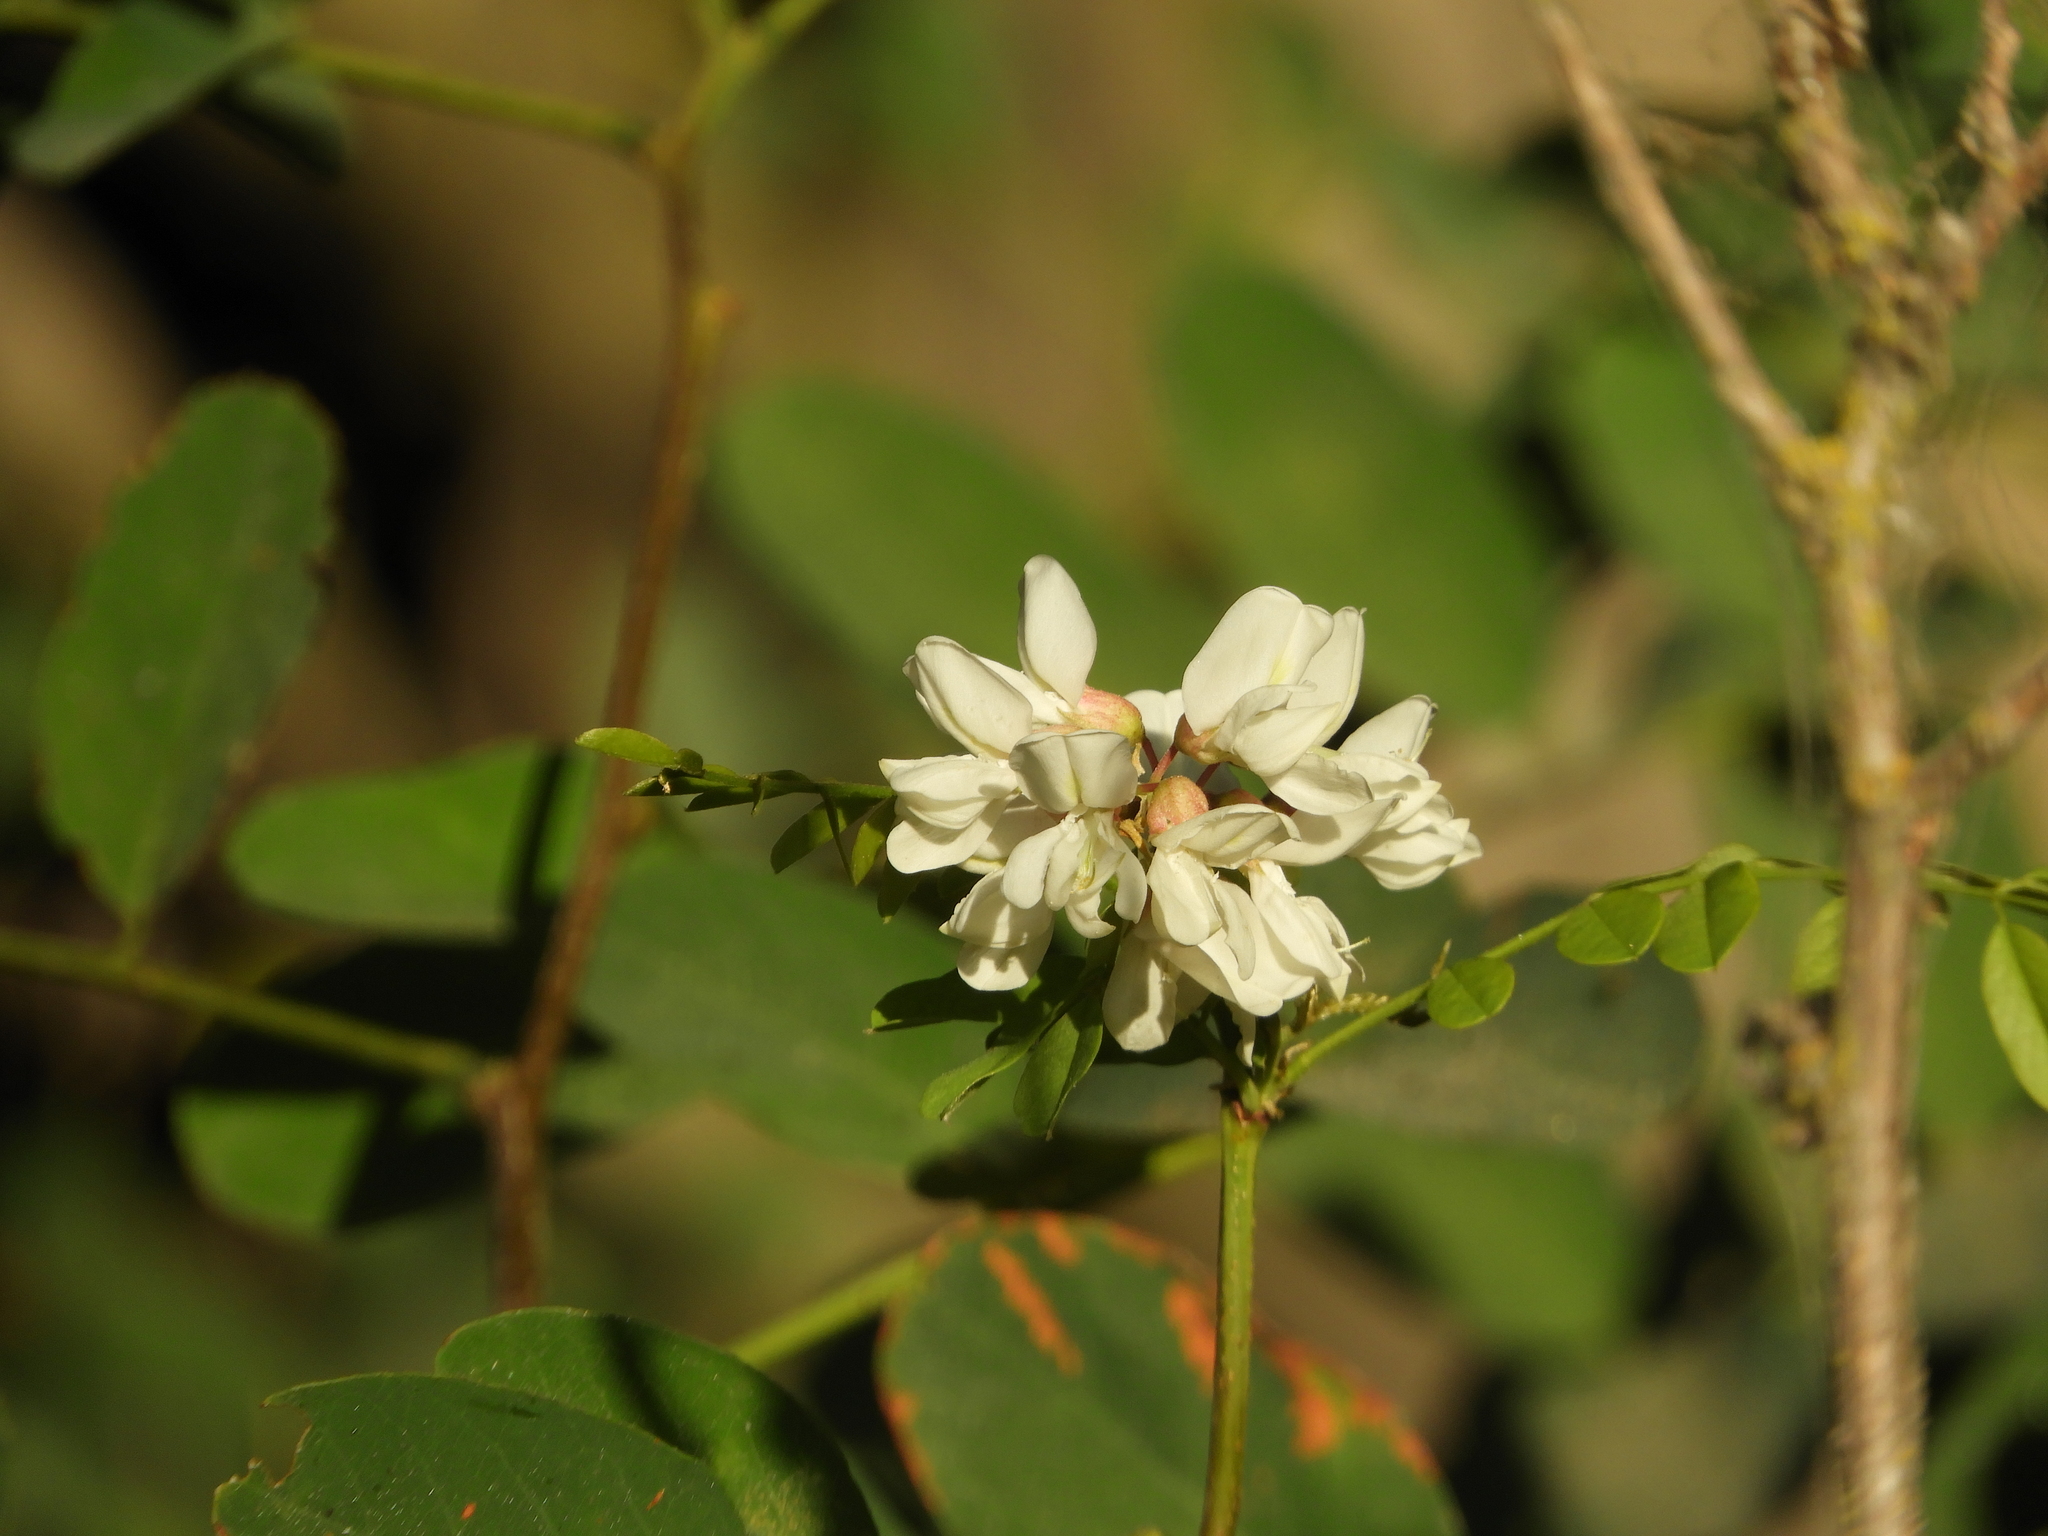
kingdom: Plantae
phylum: Tracheophyta
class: Magnoliopsida
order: Fabales
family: Fabaceae
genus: Robinia
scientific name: Robinia pseudoacacia
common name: Black locust
